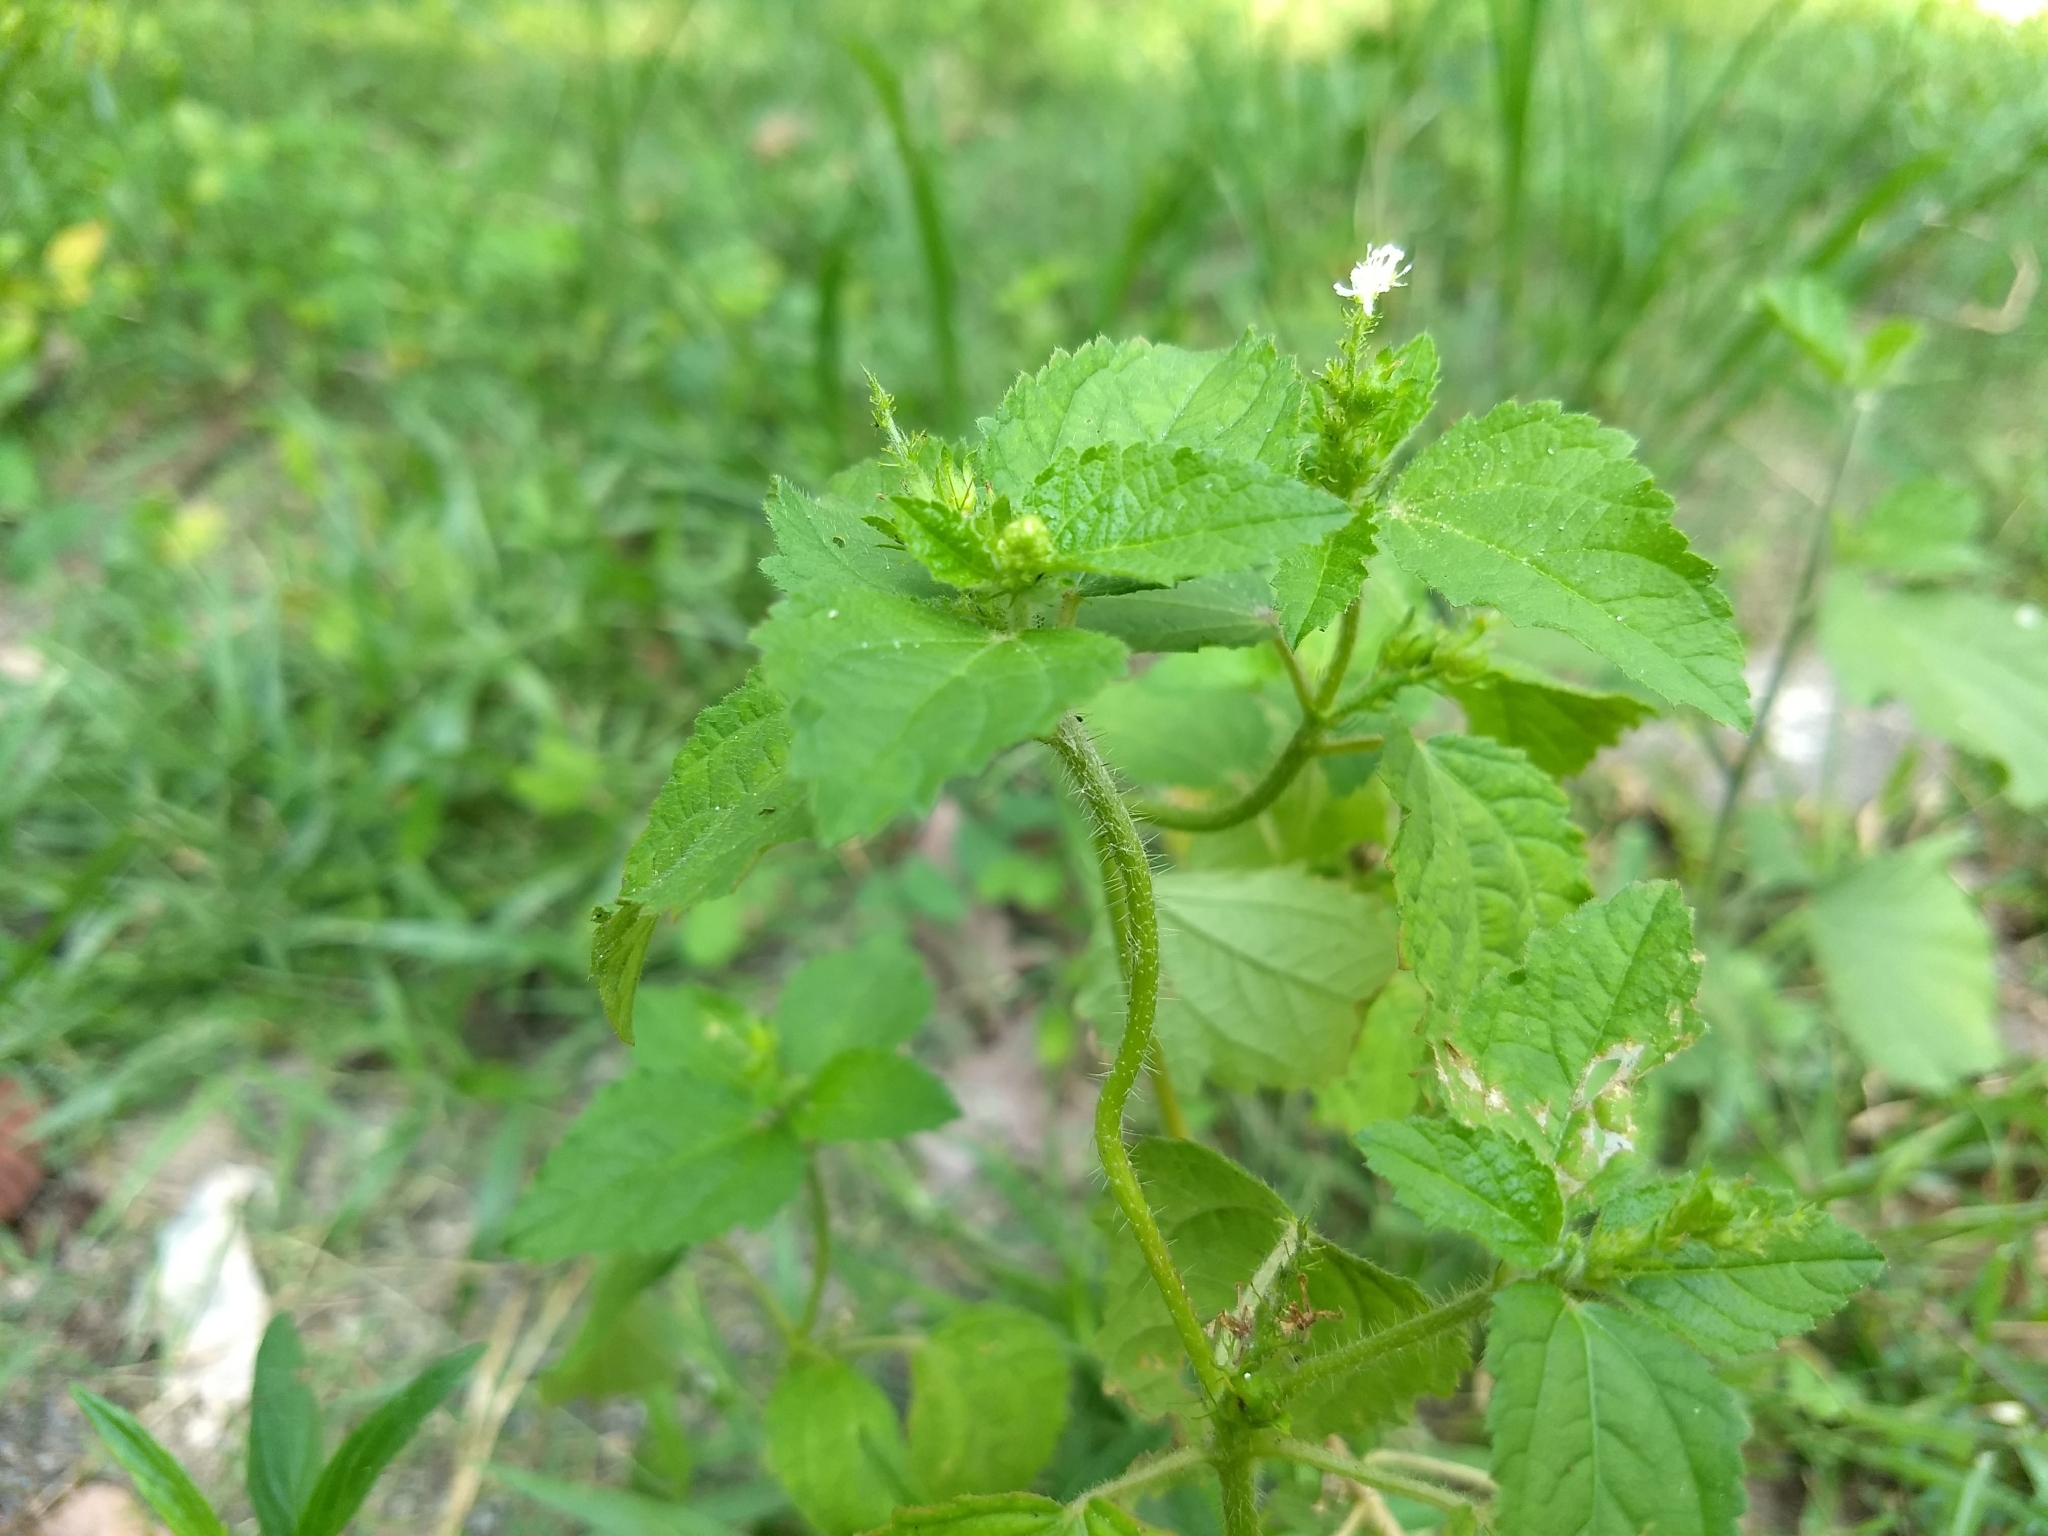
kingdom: Plantae
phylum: Tracheophyta
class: Magnoliopsida
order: Malpighiales
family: Euphorbiaceae
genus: Croton
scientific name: Croton hirtus
